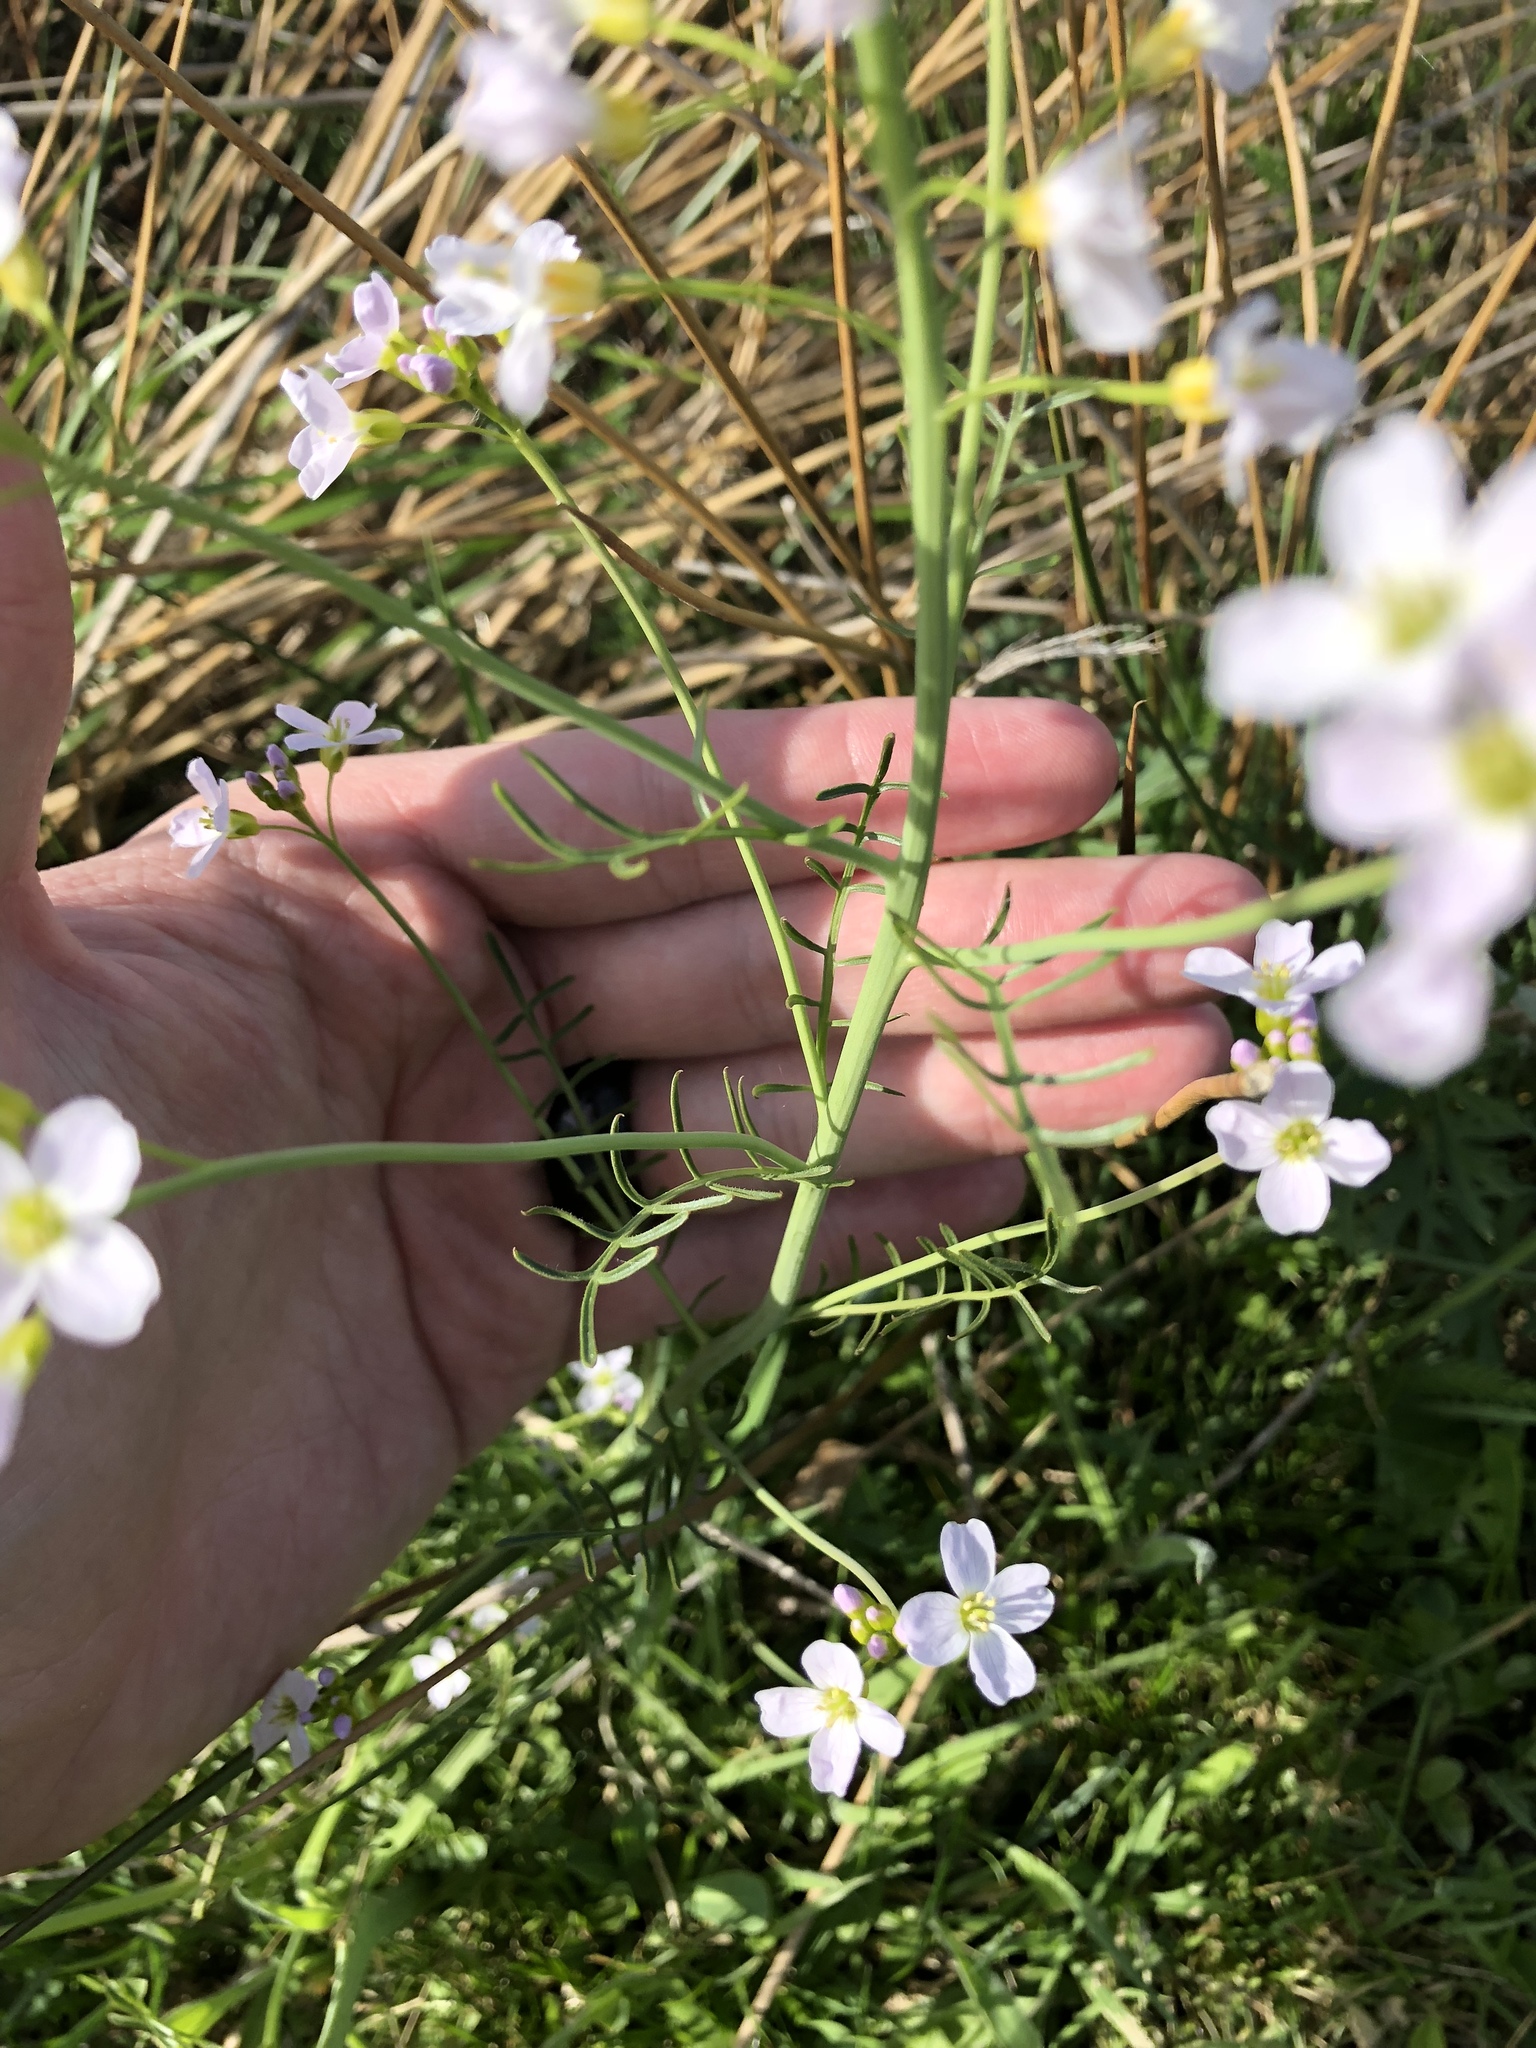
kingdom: Plantae
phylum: Tracheophyta
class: Magnoliopsida
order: Brassicales
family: Brassicaceae
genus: Cardamine
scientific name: Cardamine pratensis
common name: Cuckoo flower
